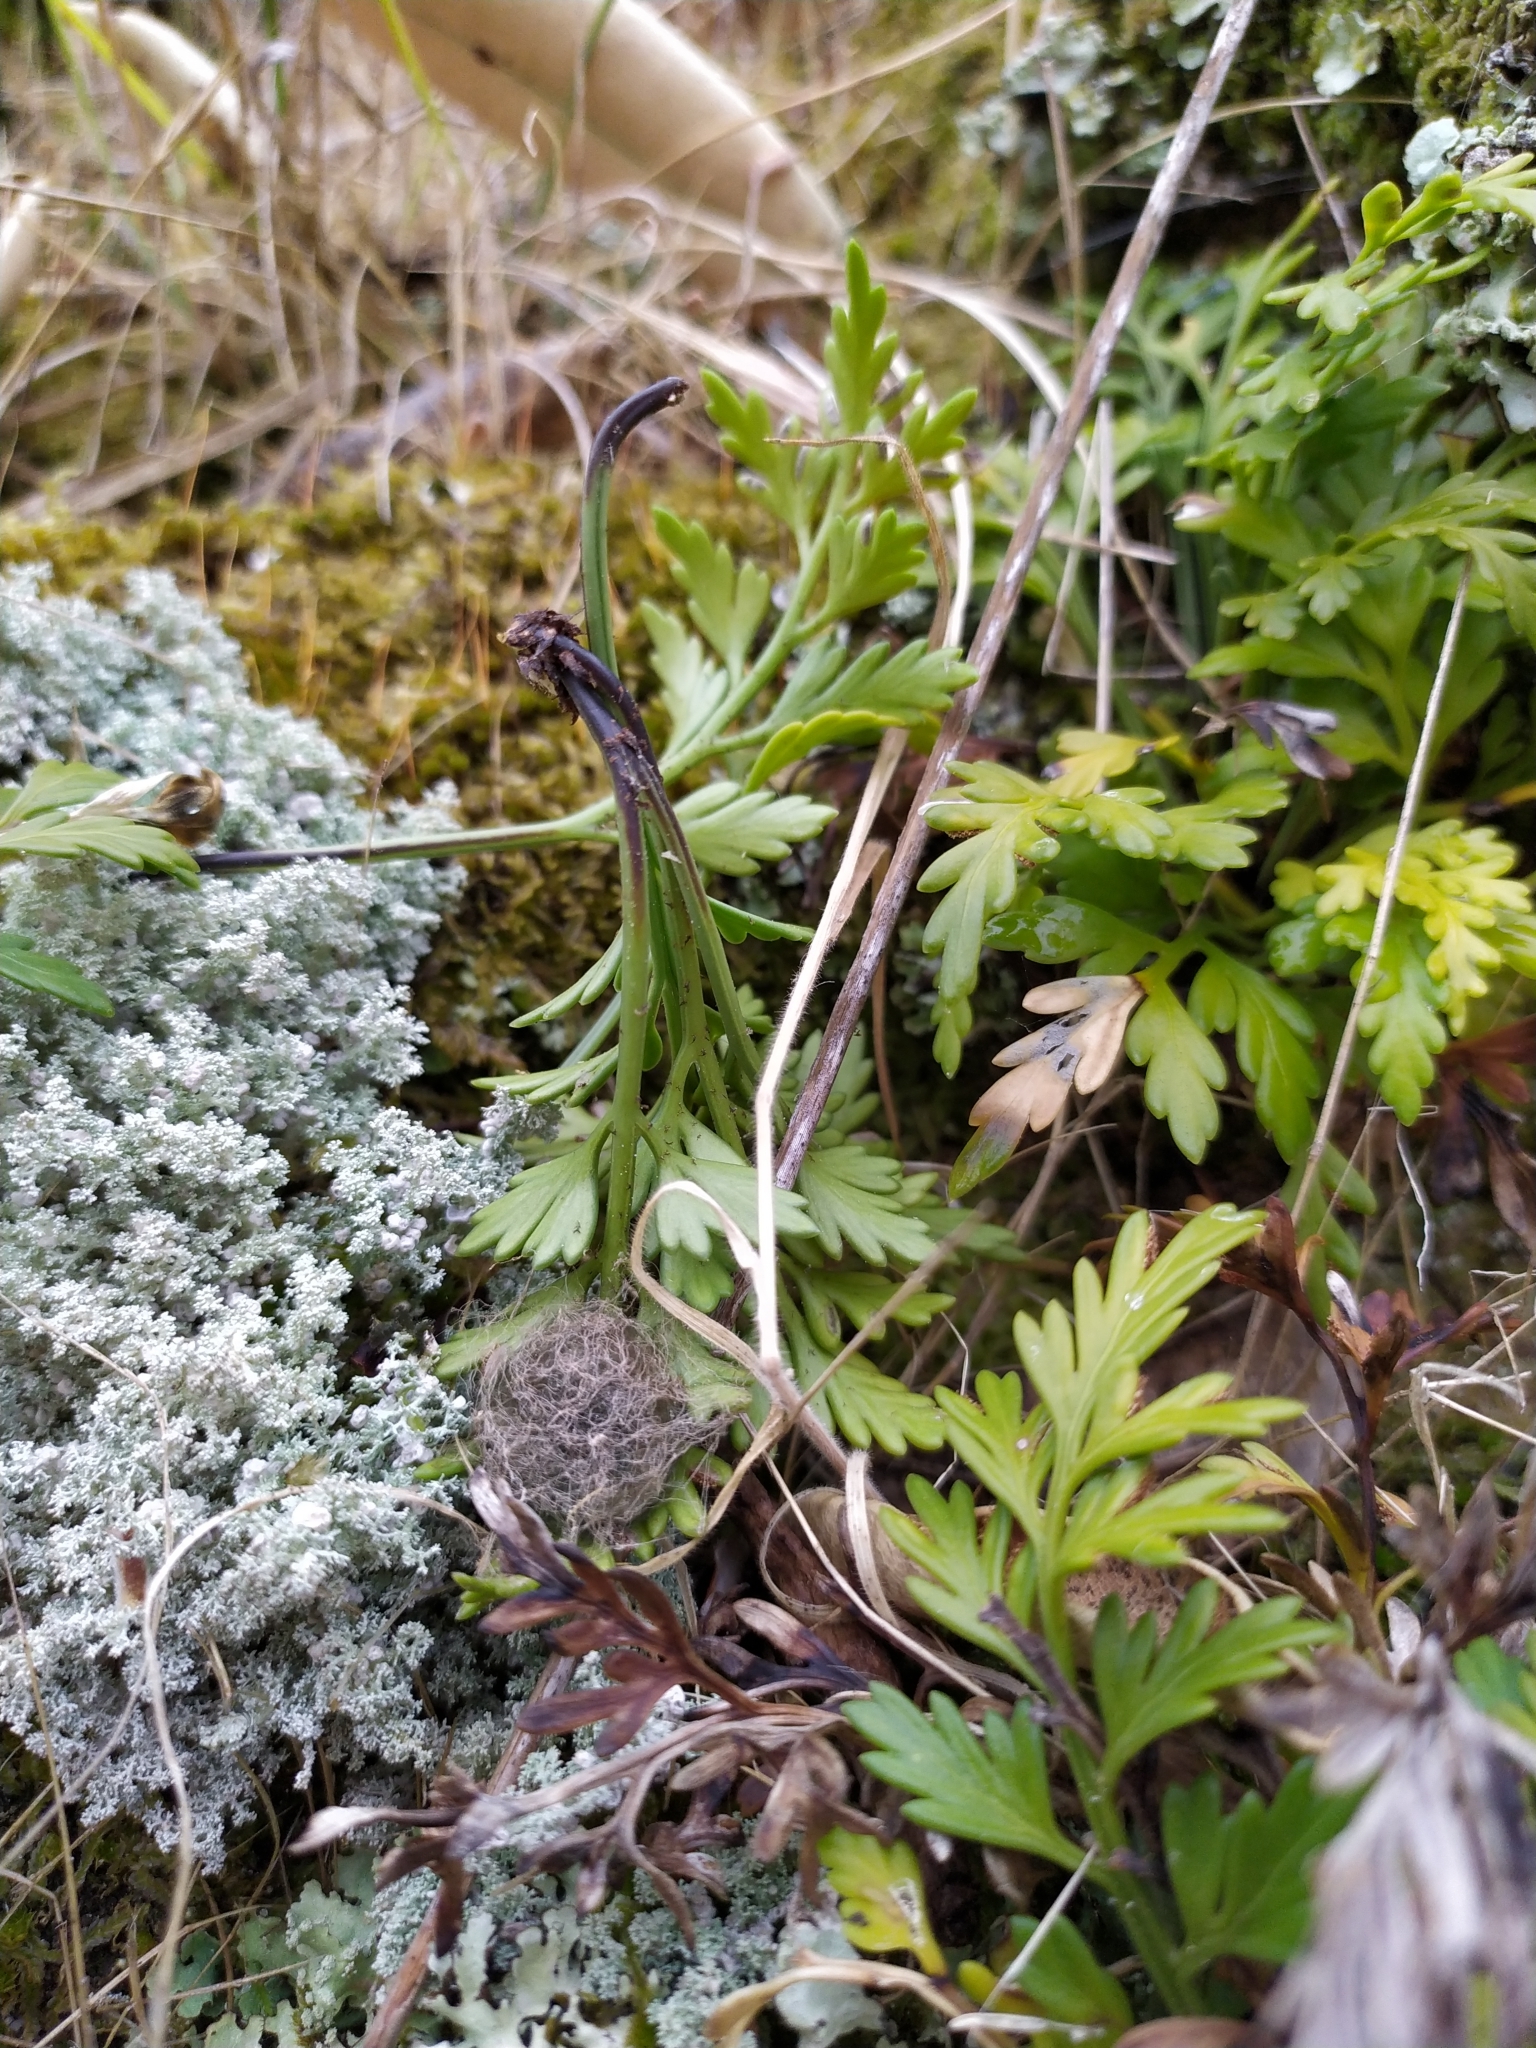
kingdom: Plantae
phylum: Tracheophyta
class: Polypodiopsida
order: Polypodiales
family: Aspleniaceae
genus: Asplenium
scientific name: Asplenium haurakiense
